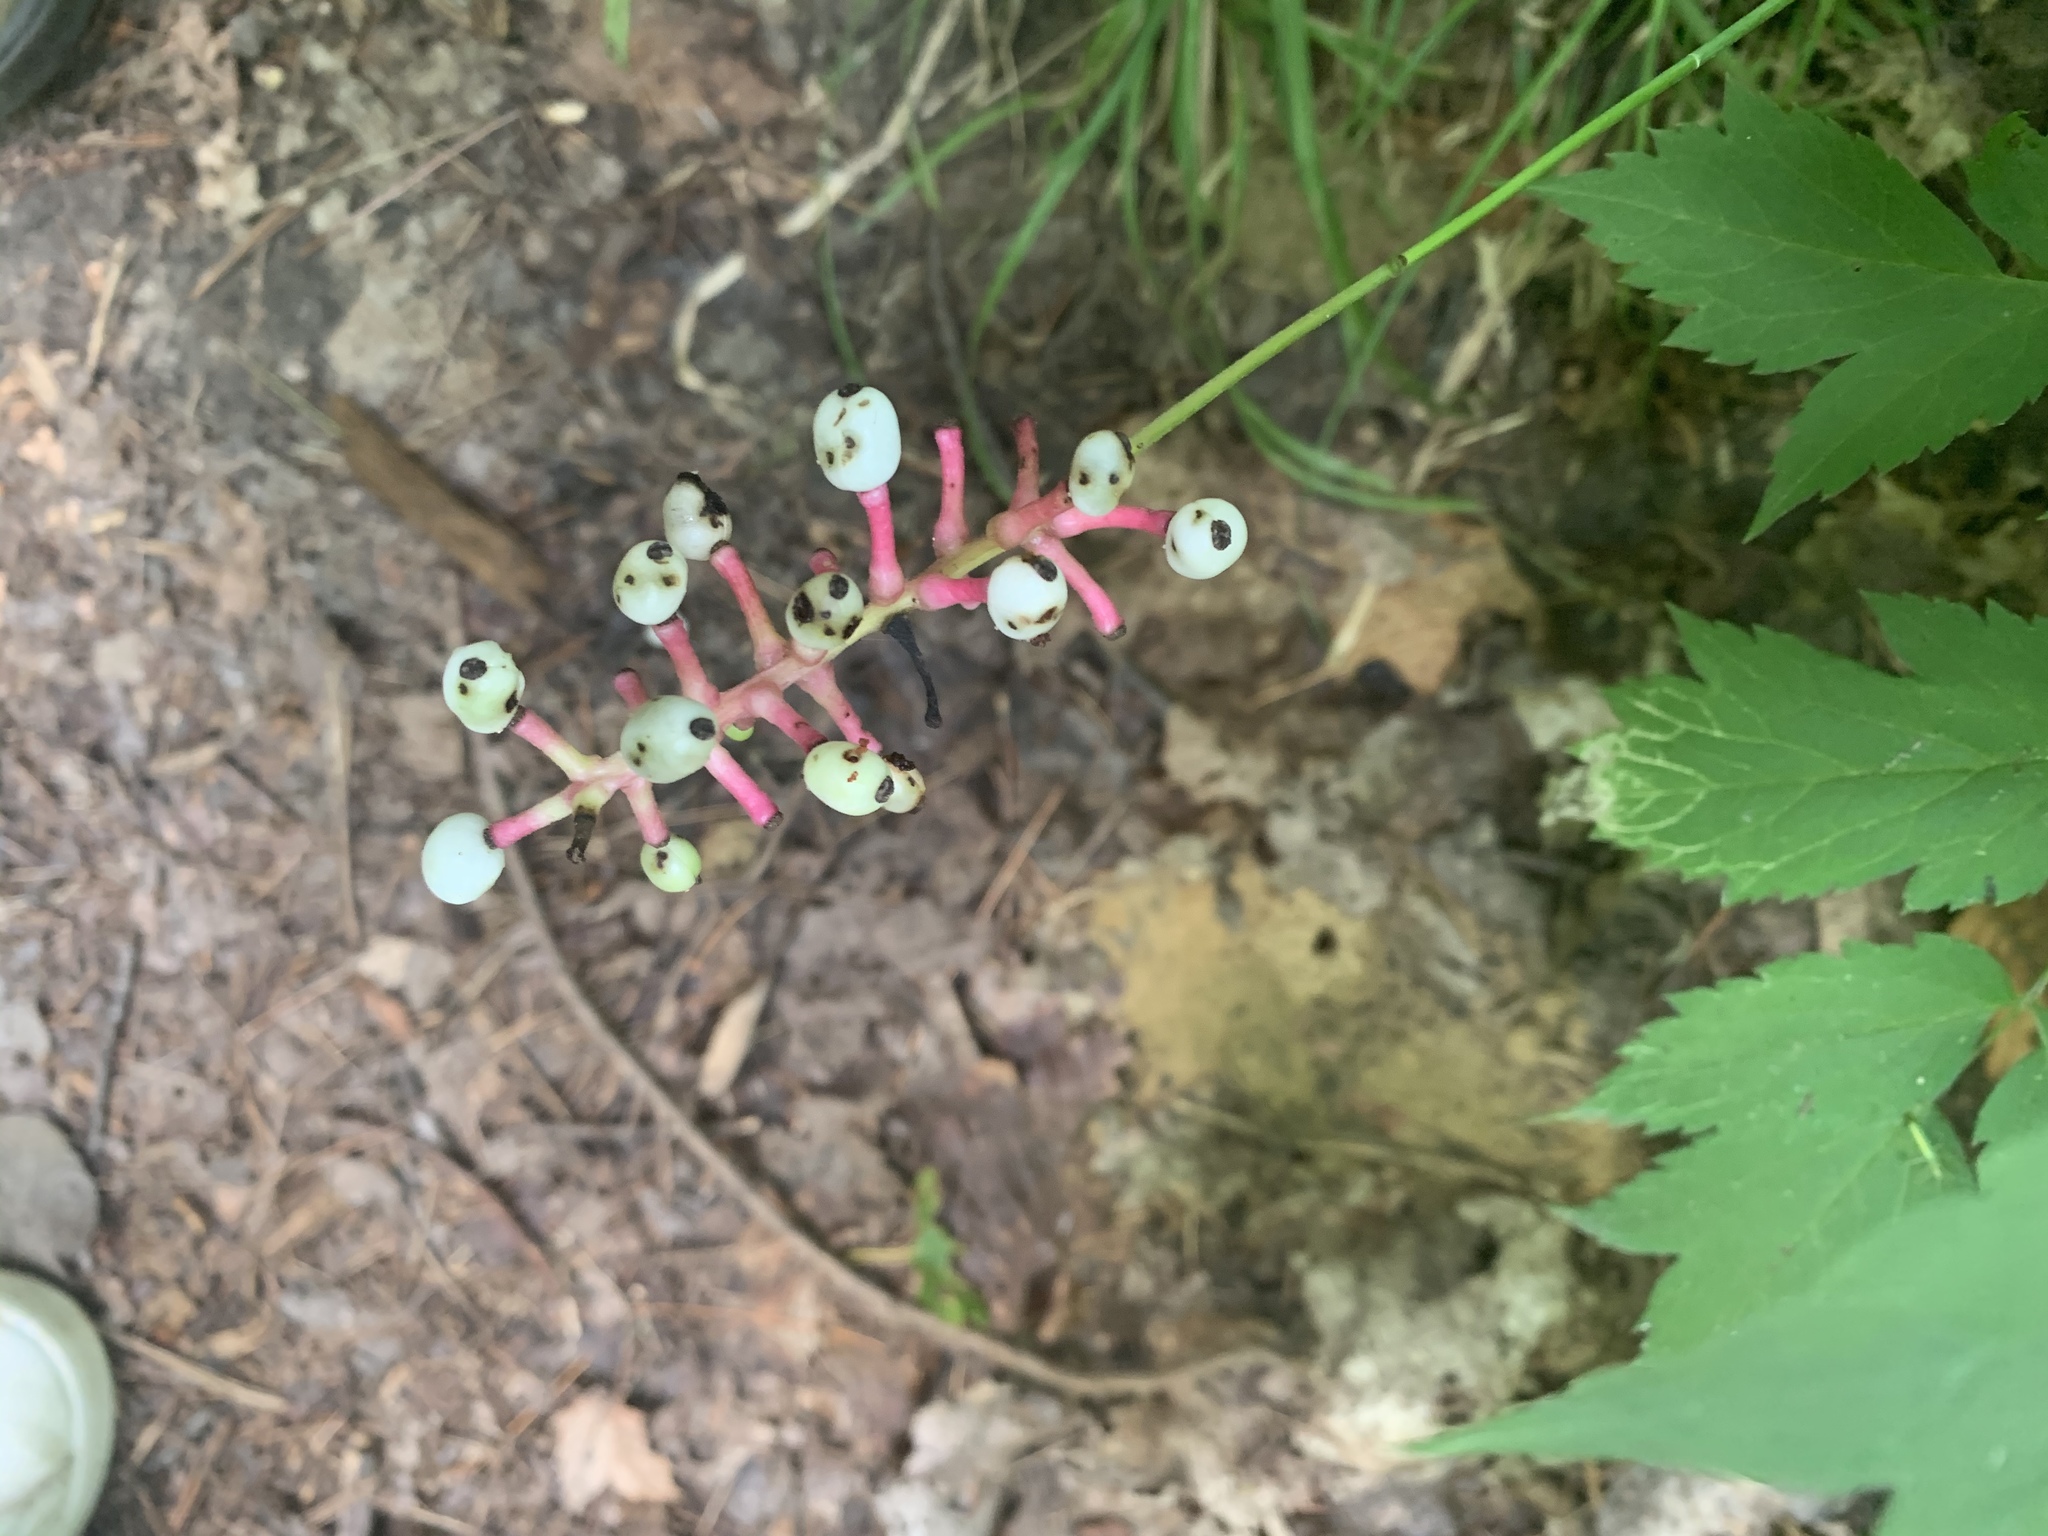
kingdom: Plantae
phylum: Tracheophyta
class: Magnoliopsida
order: Ranunculales
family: Ranunculaceae
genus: Actaea
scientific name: Actaea pachypoda
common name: Doll's-eyes
